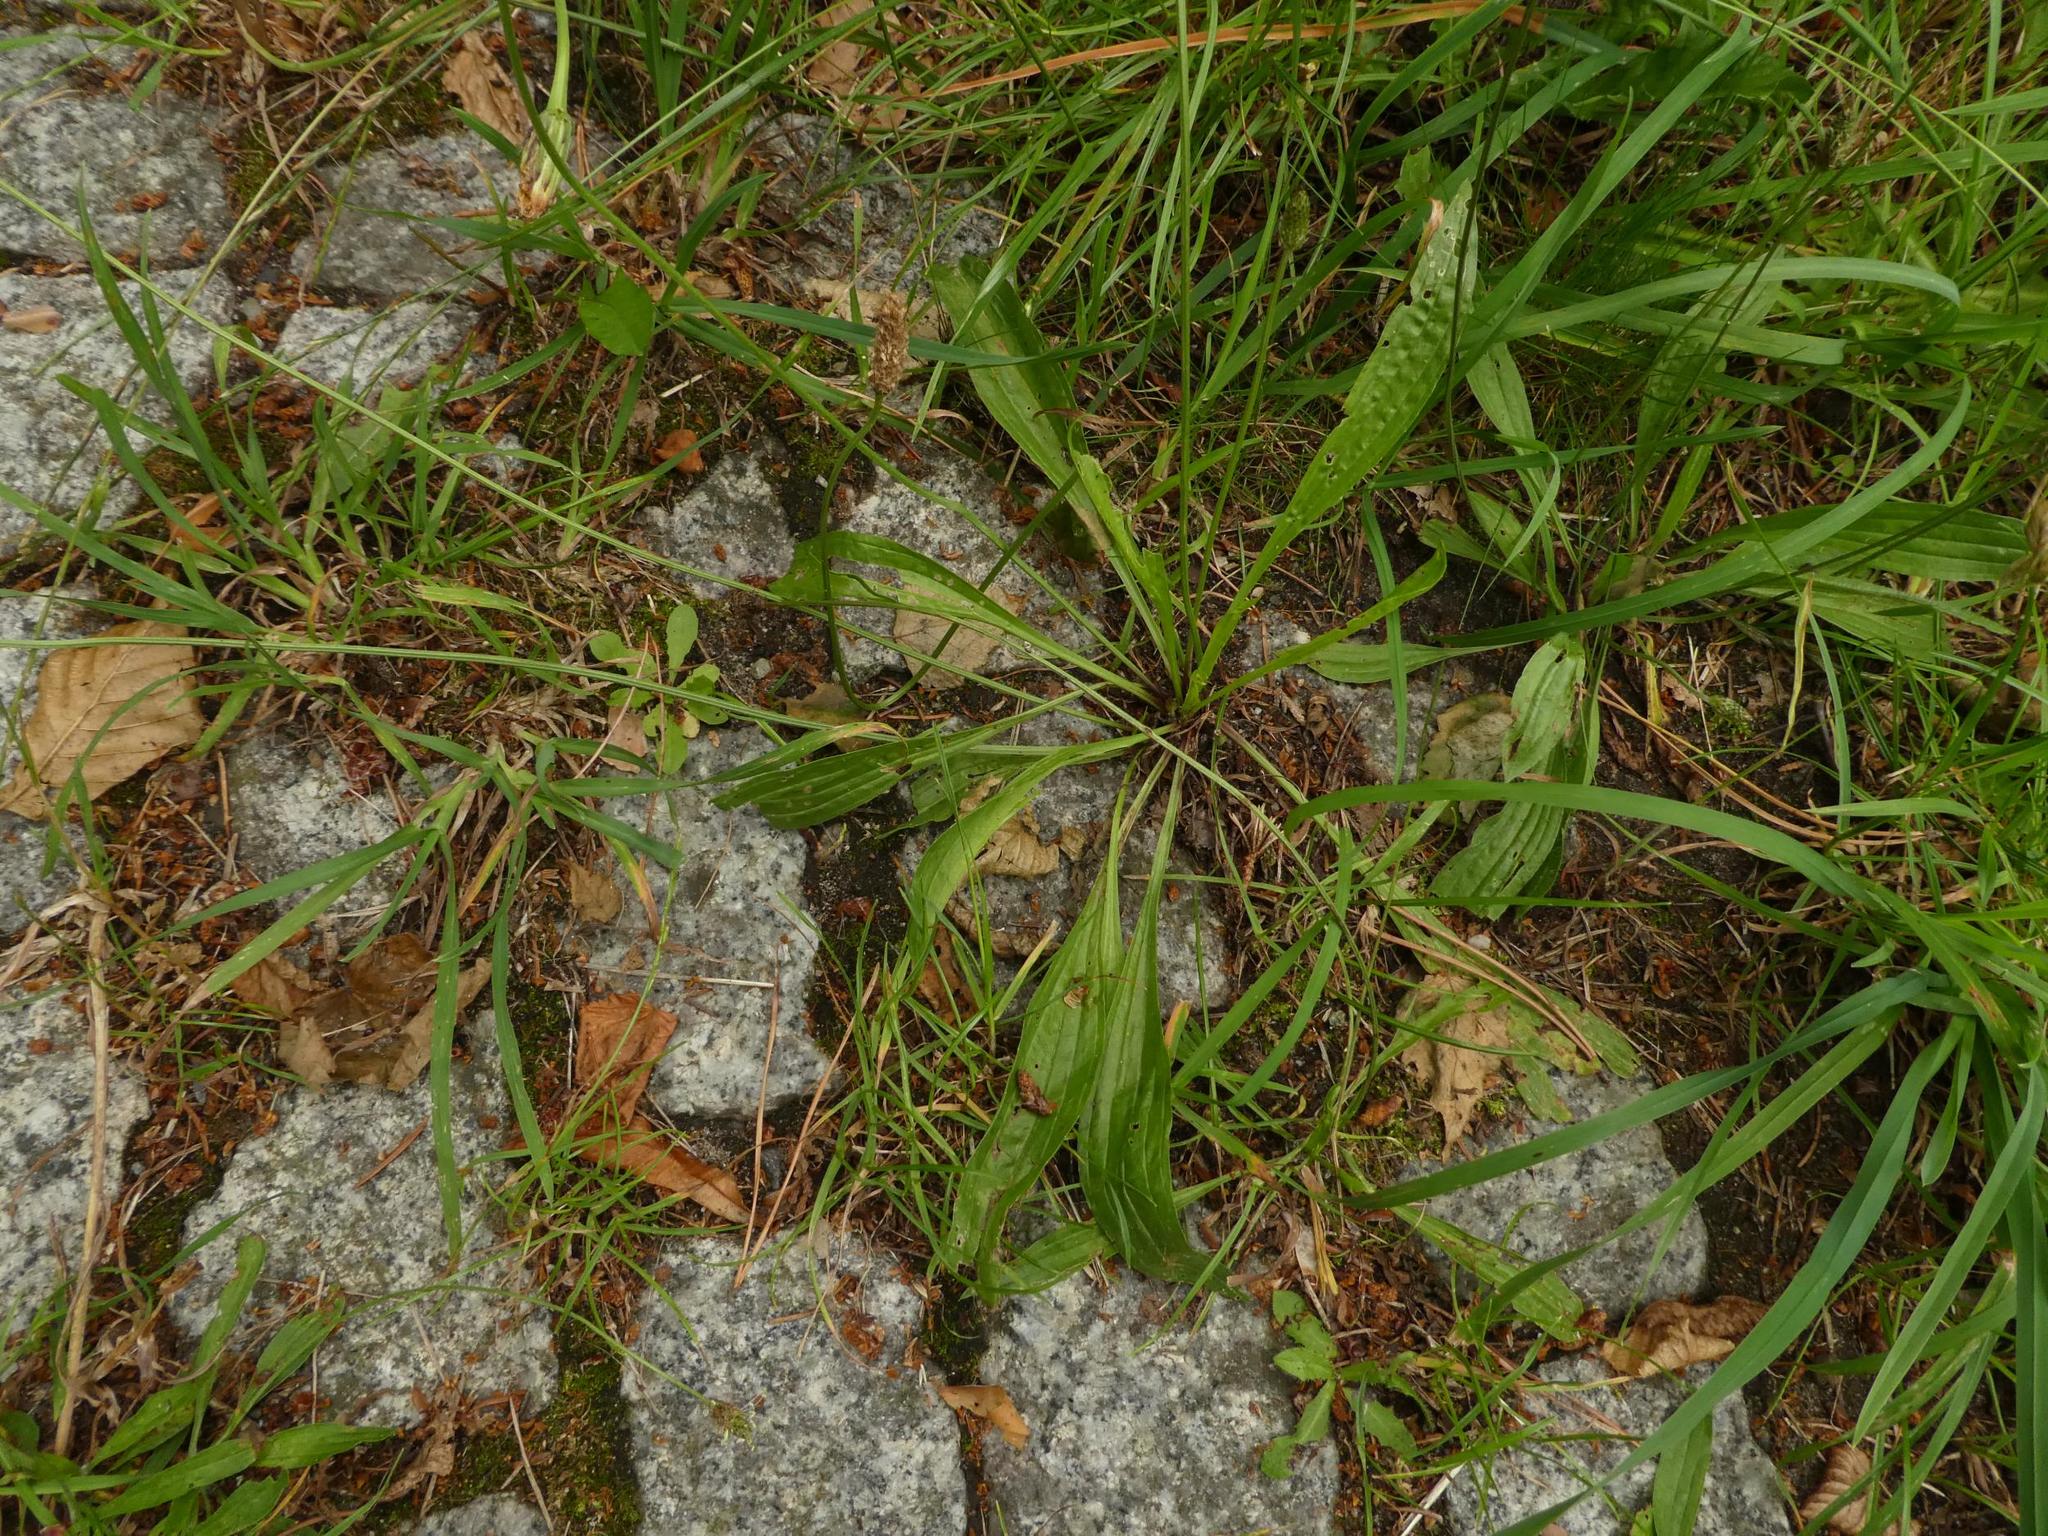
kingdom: Plantae
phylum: Tracheophyta
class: Magnoliopsida
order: Lamiales
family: Plantaginaceae
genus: Plantago
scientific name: Plantago lanceolata
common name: Ribwort plantain
